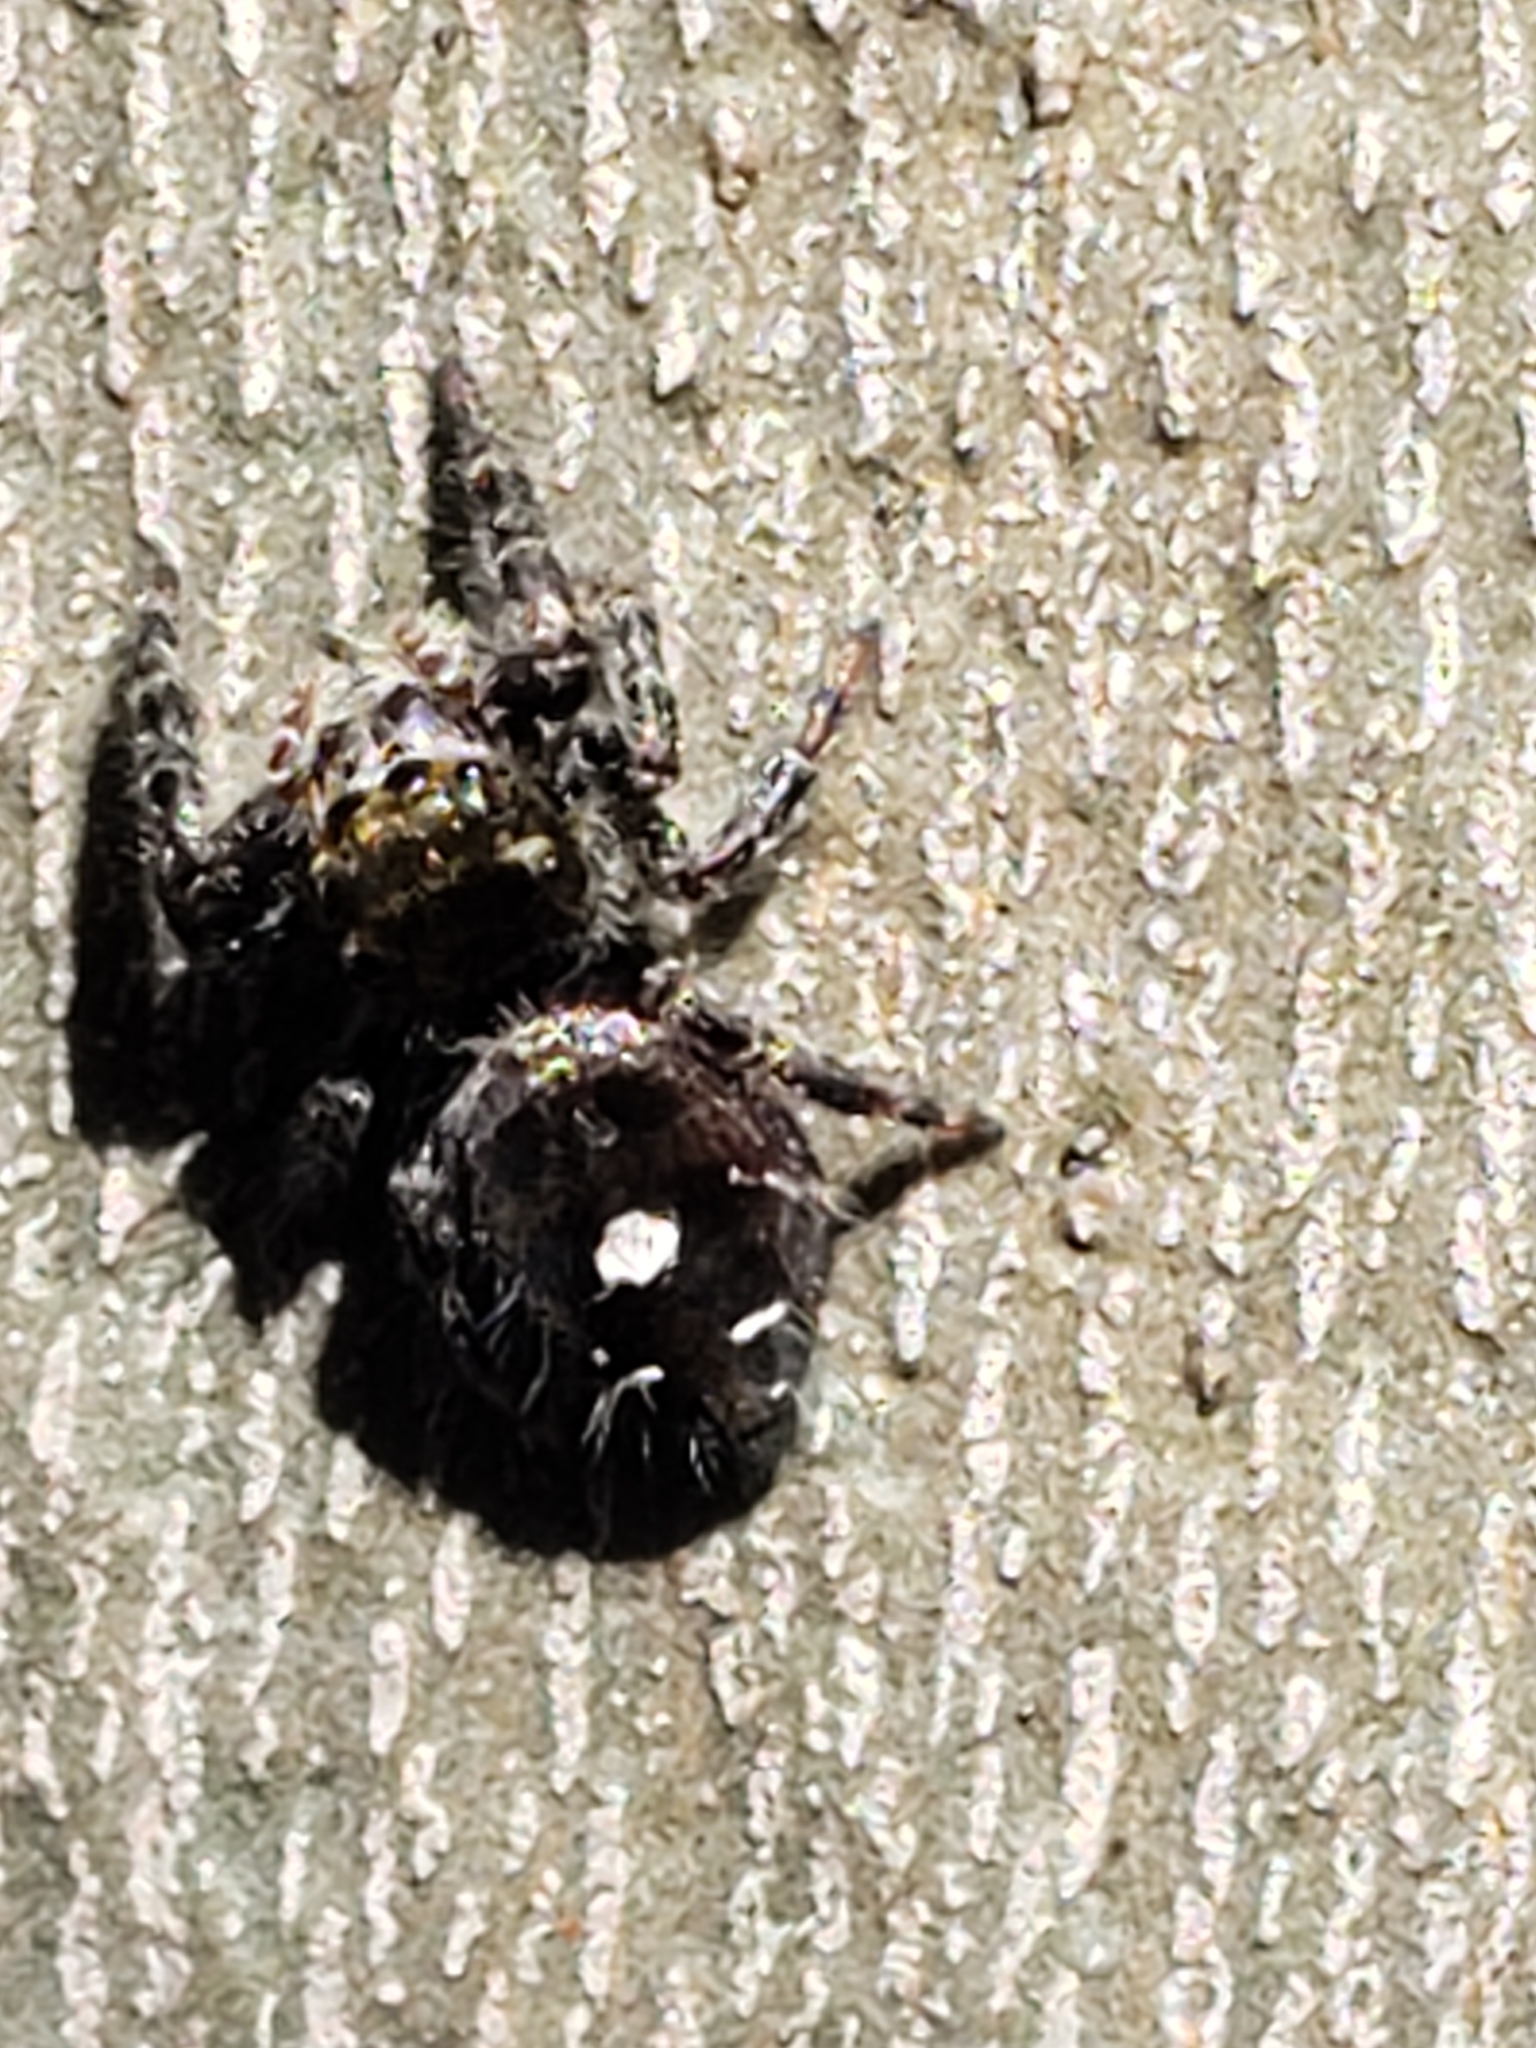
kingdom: Animalia
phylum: Arthropoda
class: Arachnida
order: Araneae
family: Salticidae
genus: Phidippus
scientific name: Phidippus audax
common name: Bold jumper
